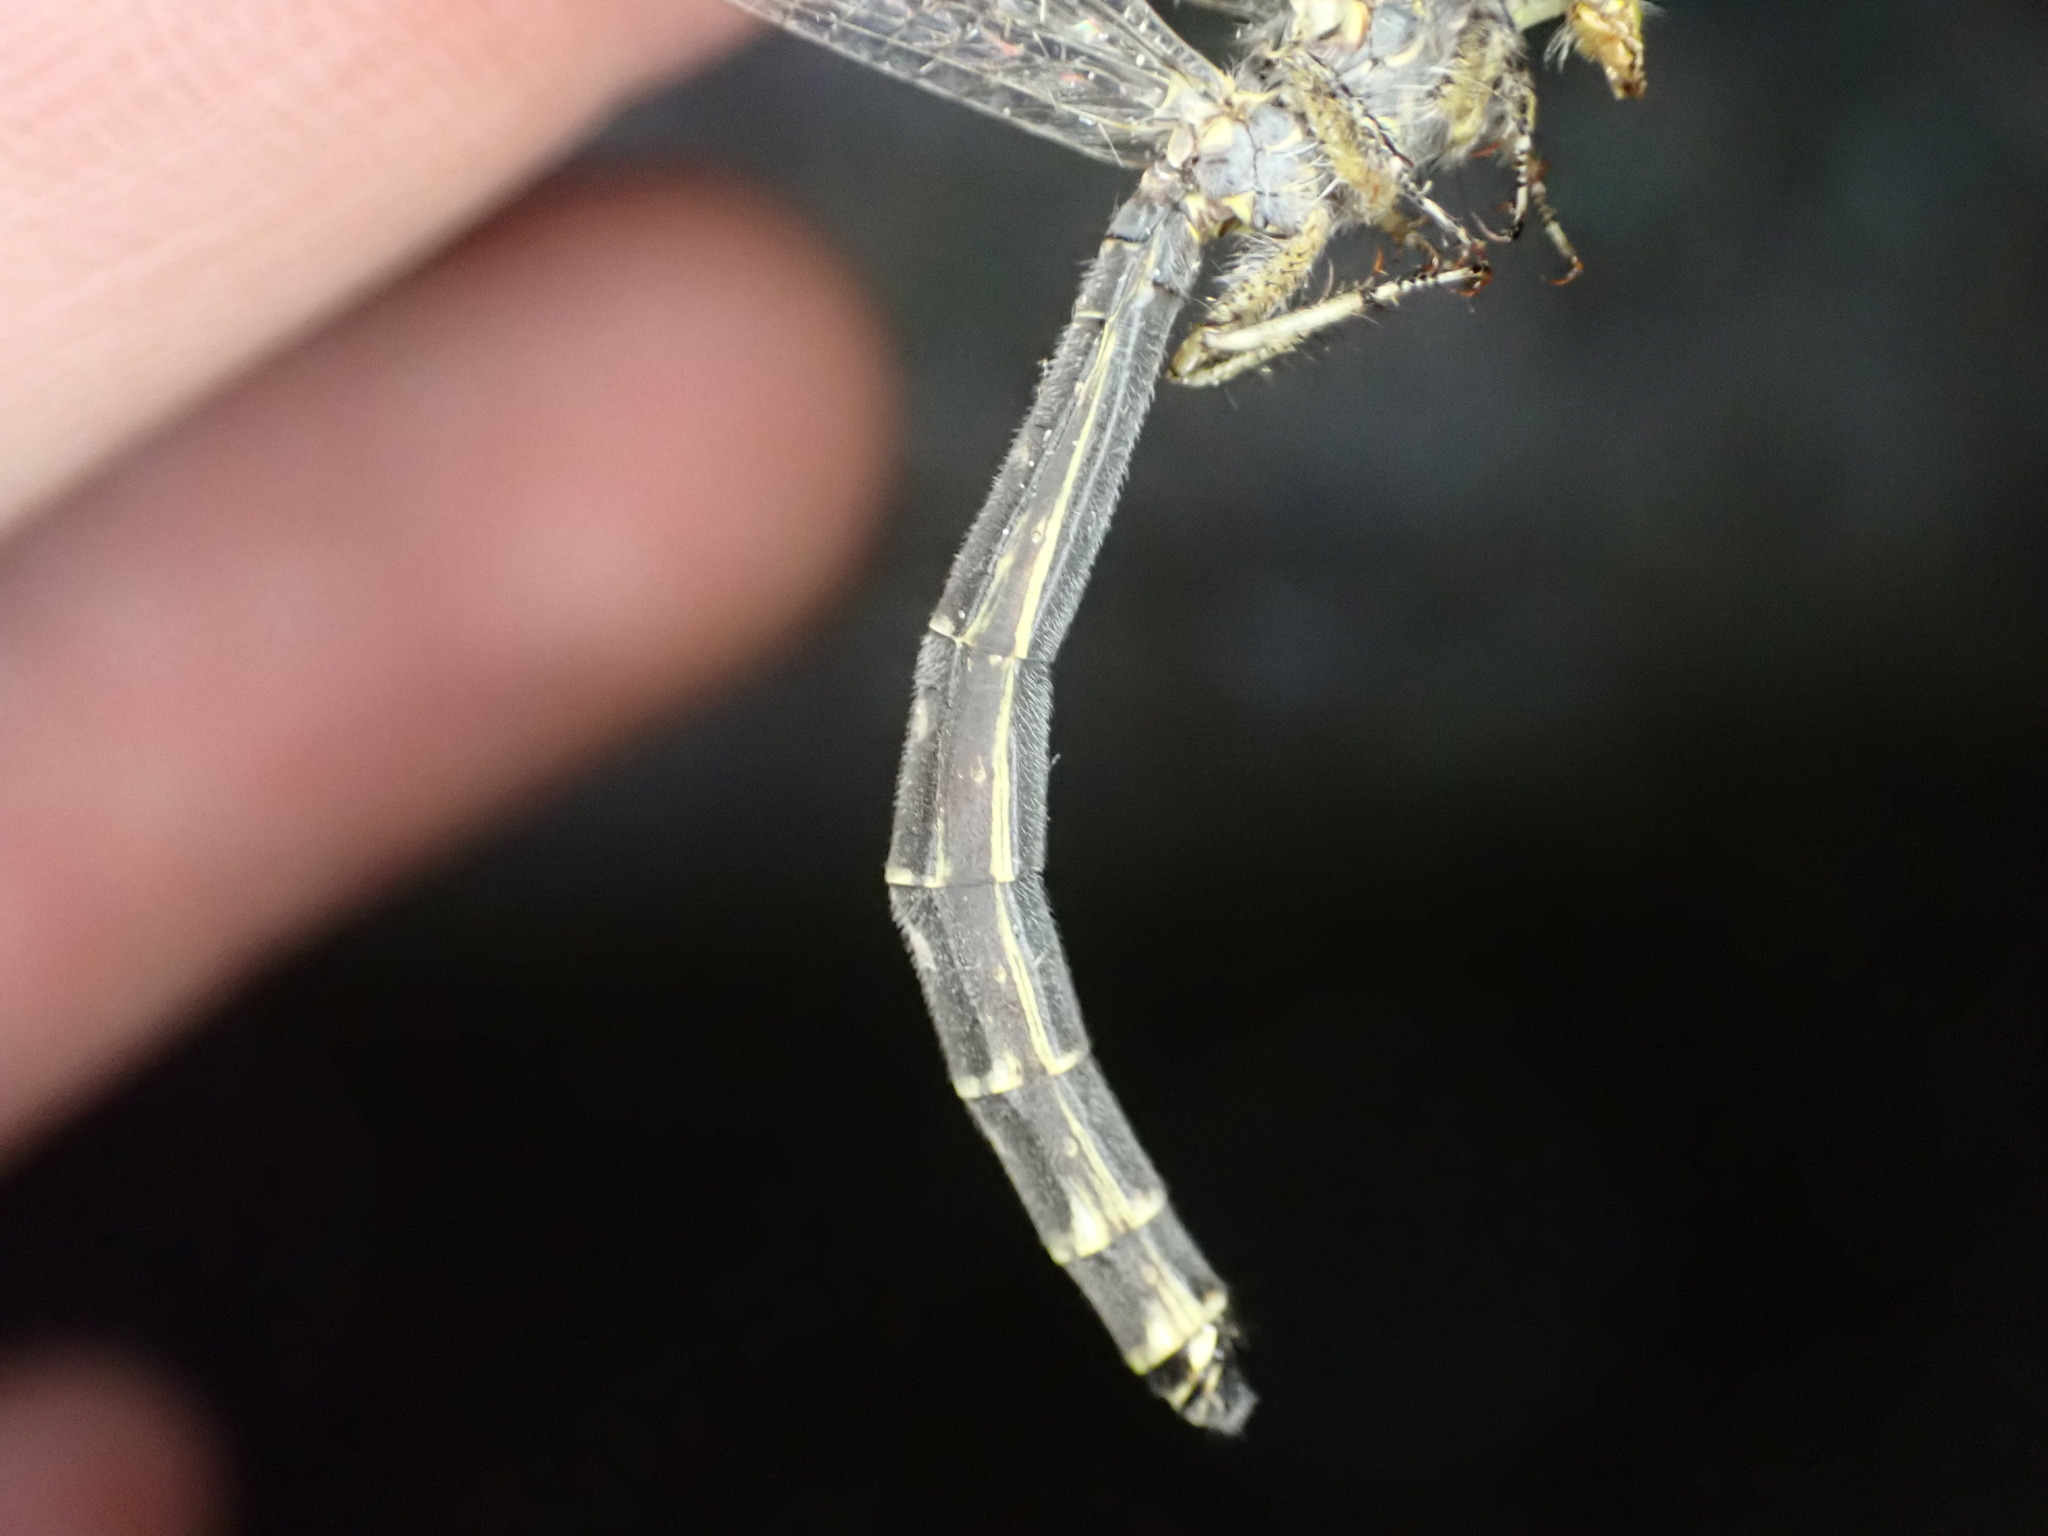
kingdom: Animalia
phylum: Arthropoda
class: Insecta
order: Neuroptera
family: Myrmeleontidae
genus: Distoleon
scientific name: Distoleon tetragrammicus
